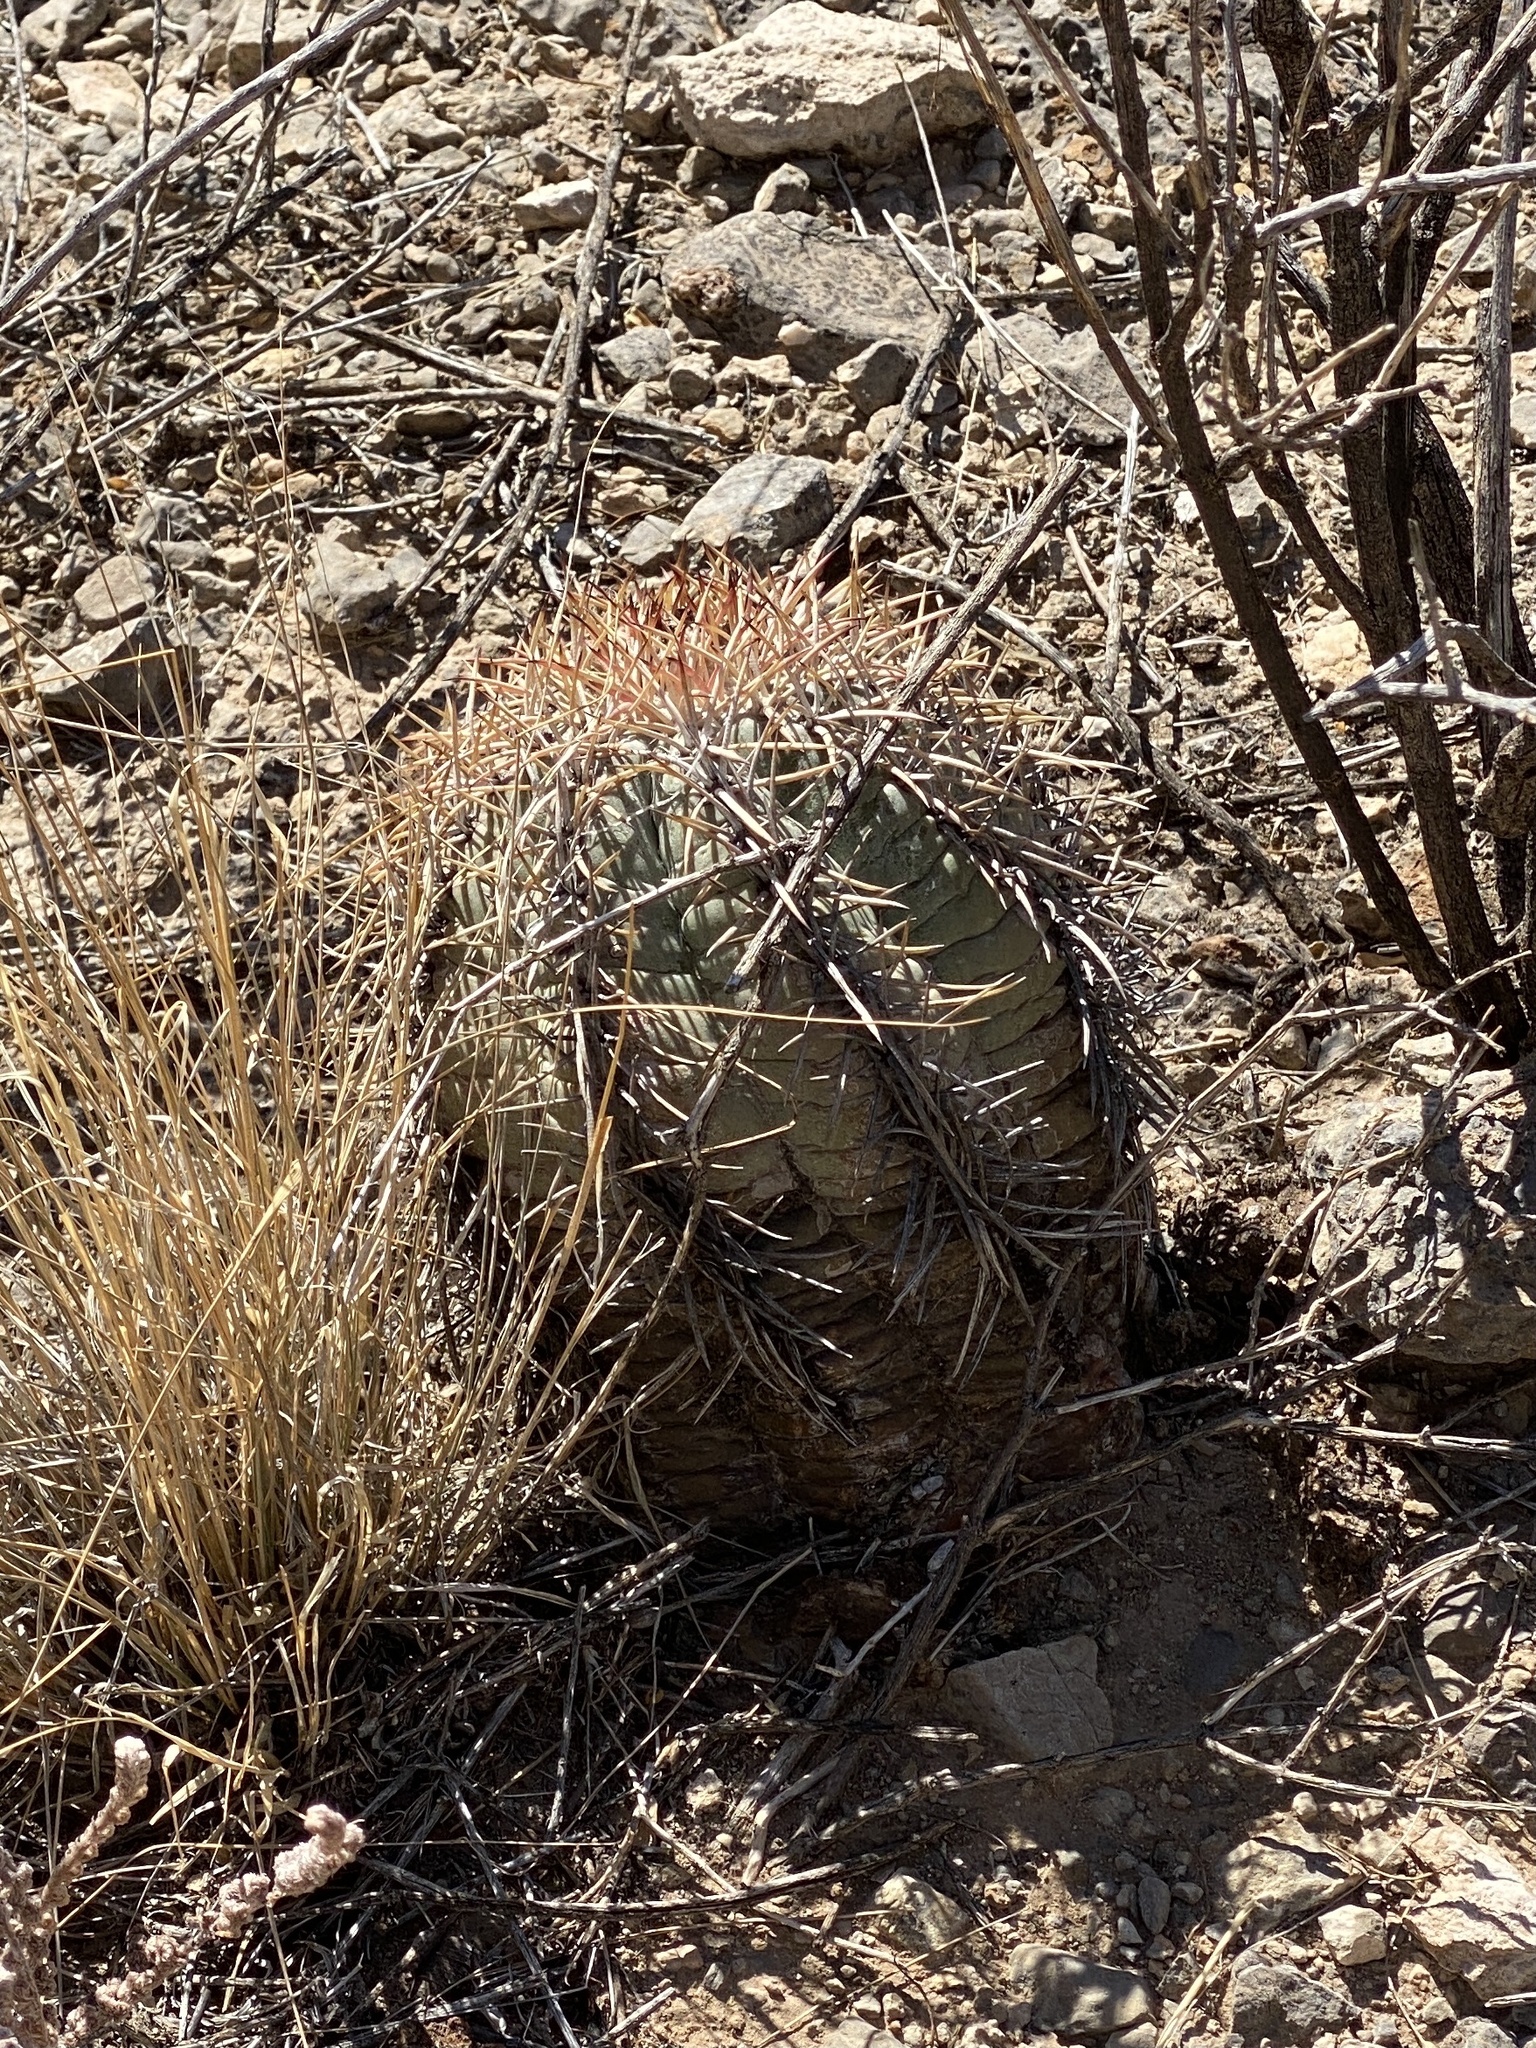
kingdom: Plantae
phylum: Tracheophyta
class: Magnoliopsida
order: Caryophyllales
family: Cactaceae
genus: Echinocactus
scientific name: Echinocactus horizonthalonius
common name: Devilshead
